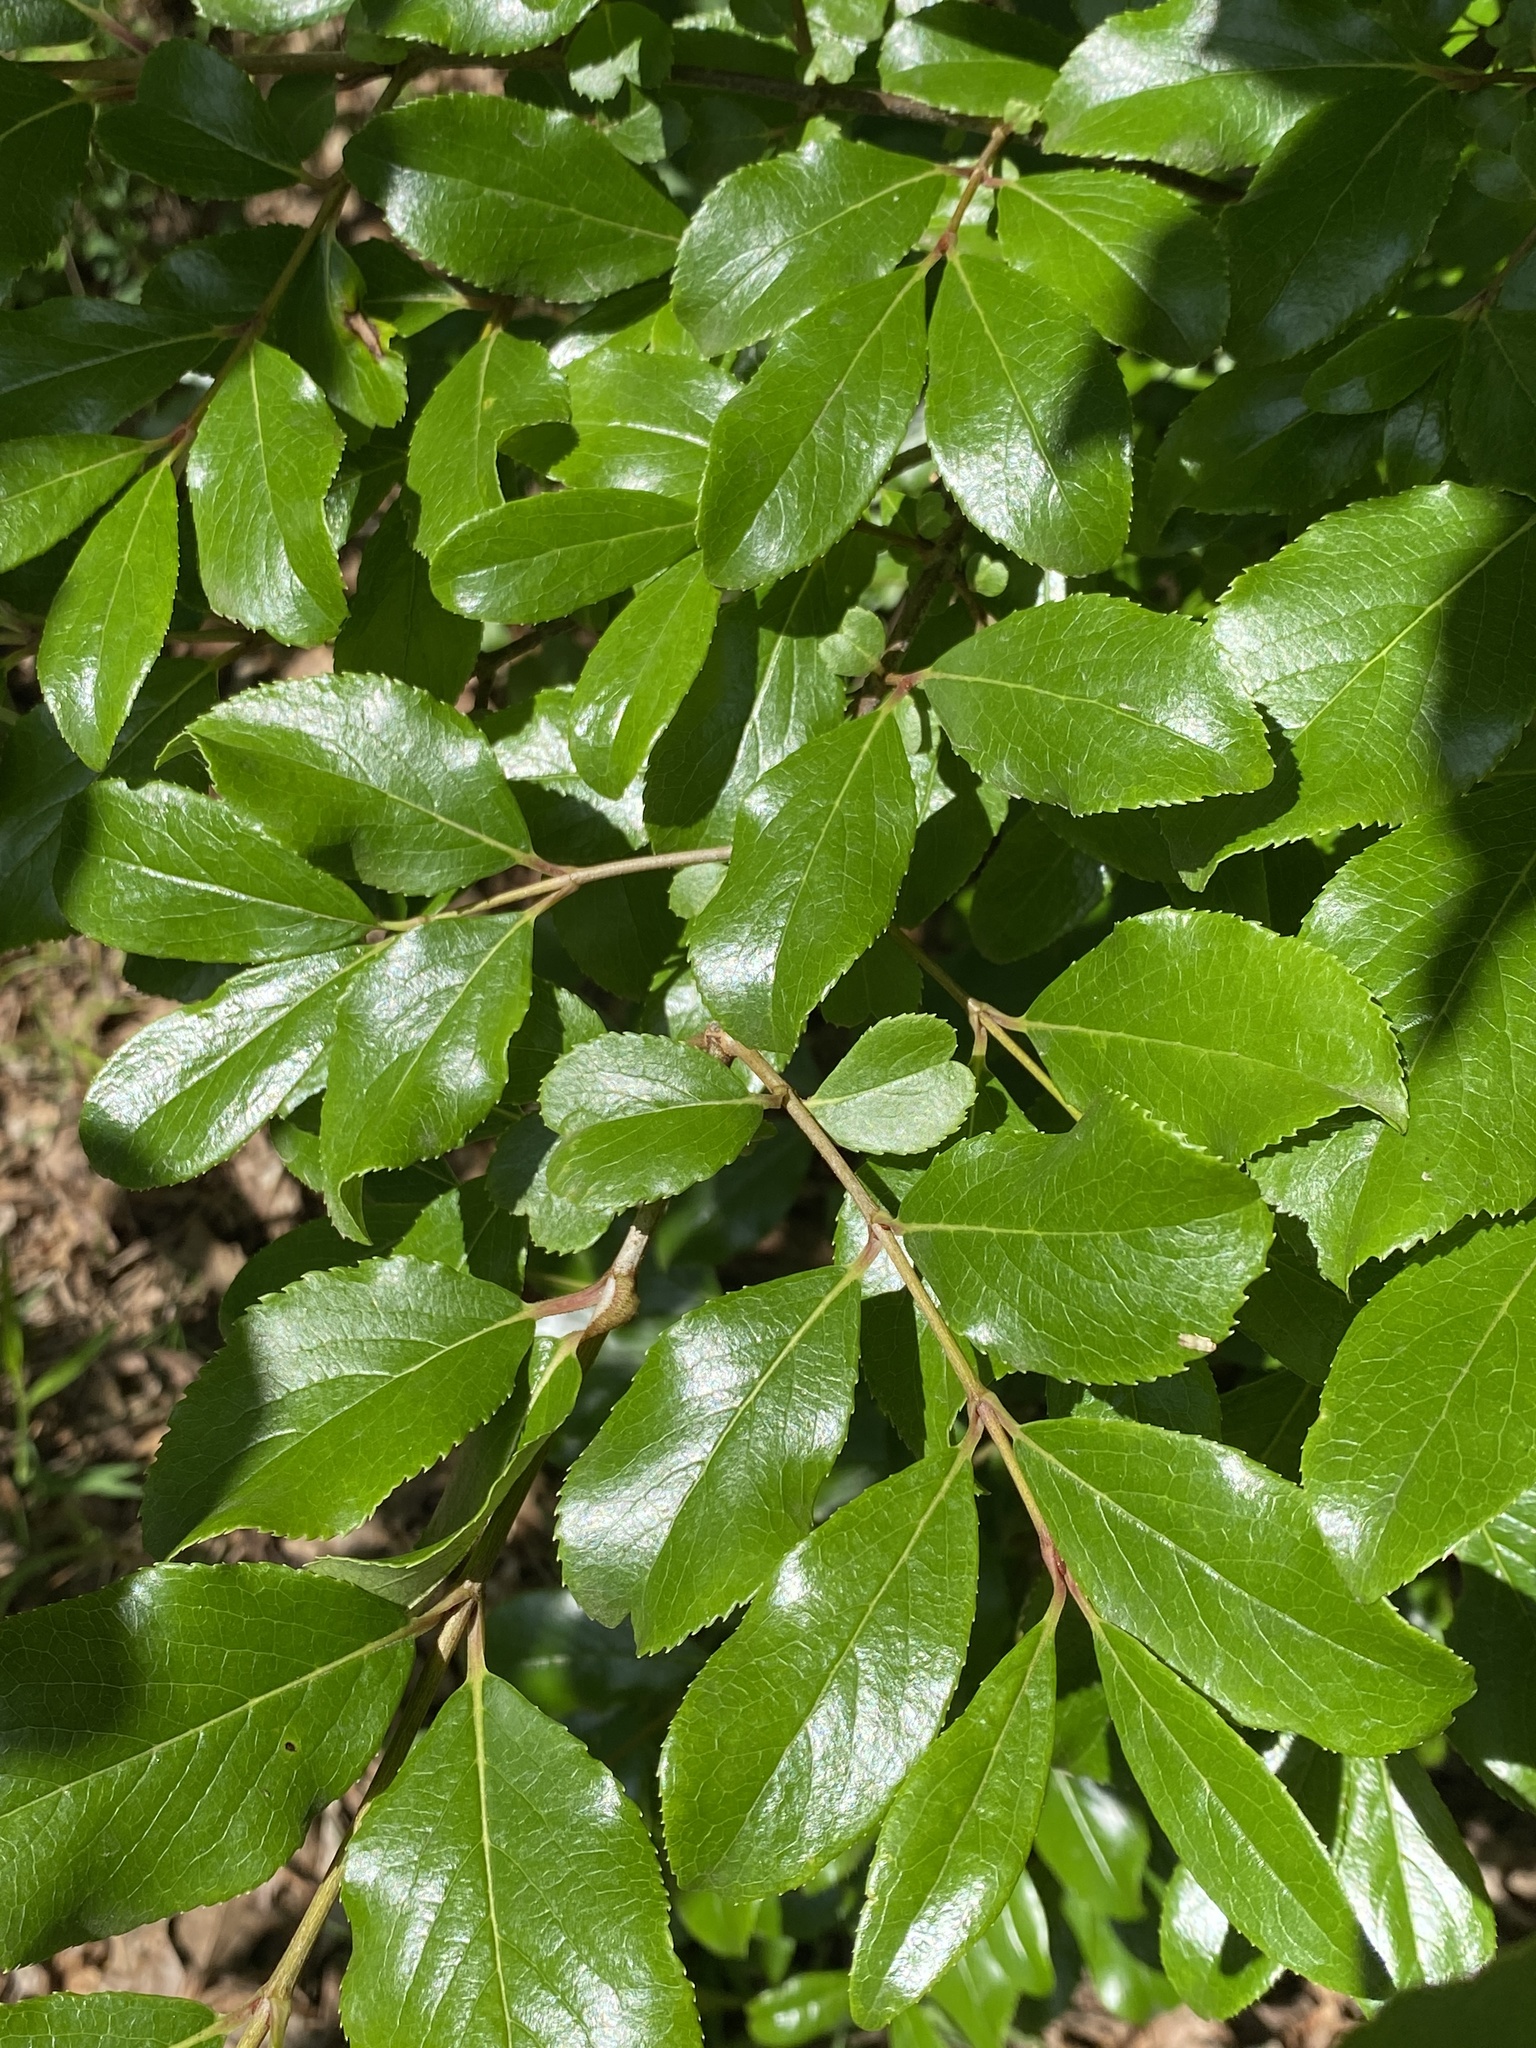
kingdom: Plantae
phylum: Tracheophyta
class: Magnoliopsida
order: Dipsacales
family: Viburnaceae
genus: Viburnum
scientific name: Viburnum rufidulum
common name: Blue haw
